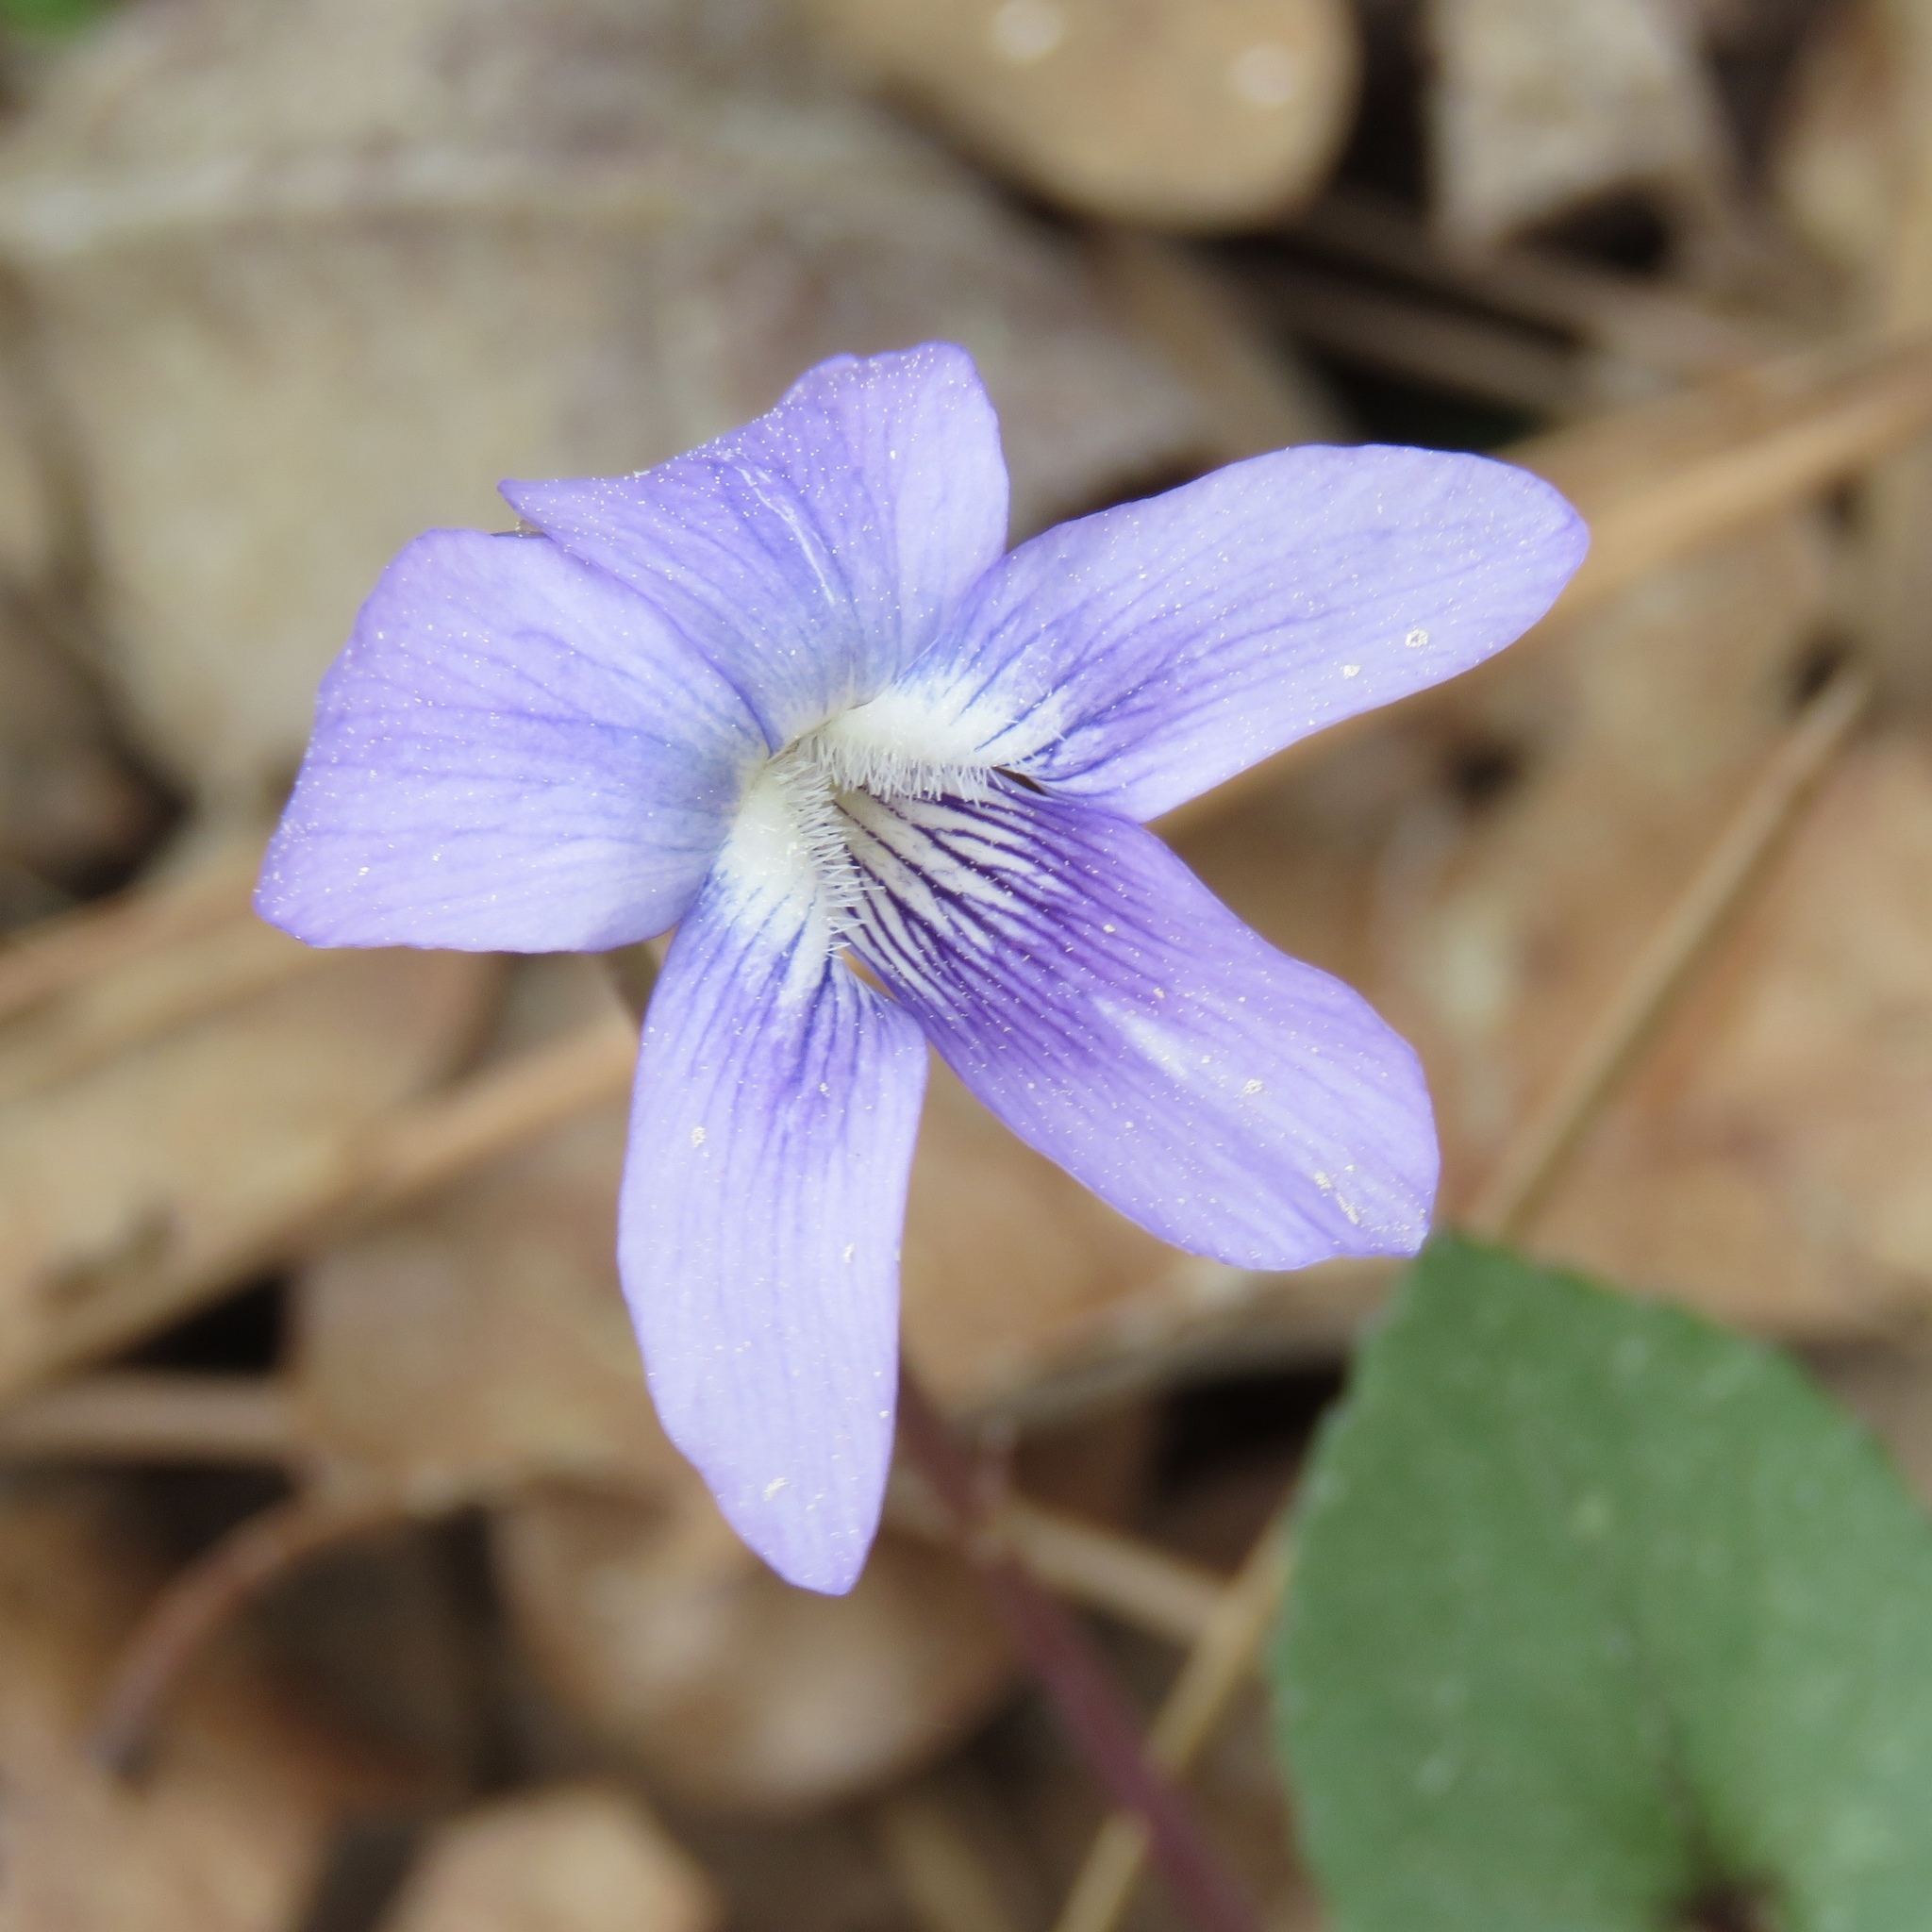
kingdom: Plantae
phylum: Tracheophyta
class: Magnoliopsida
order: Malpighiales
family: Violaceae
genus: Viola
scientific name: Viola sororia
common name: Dooryard violet
